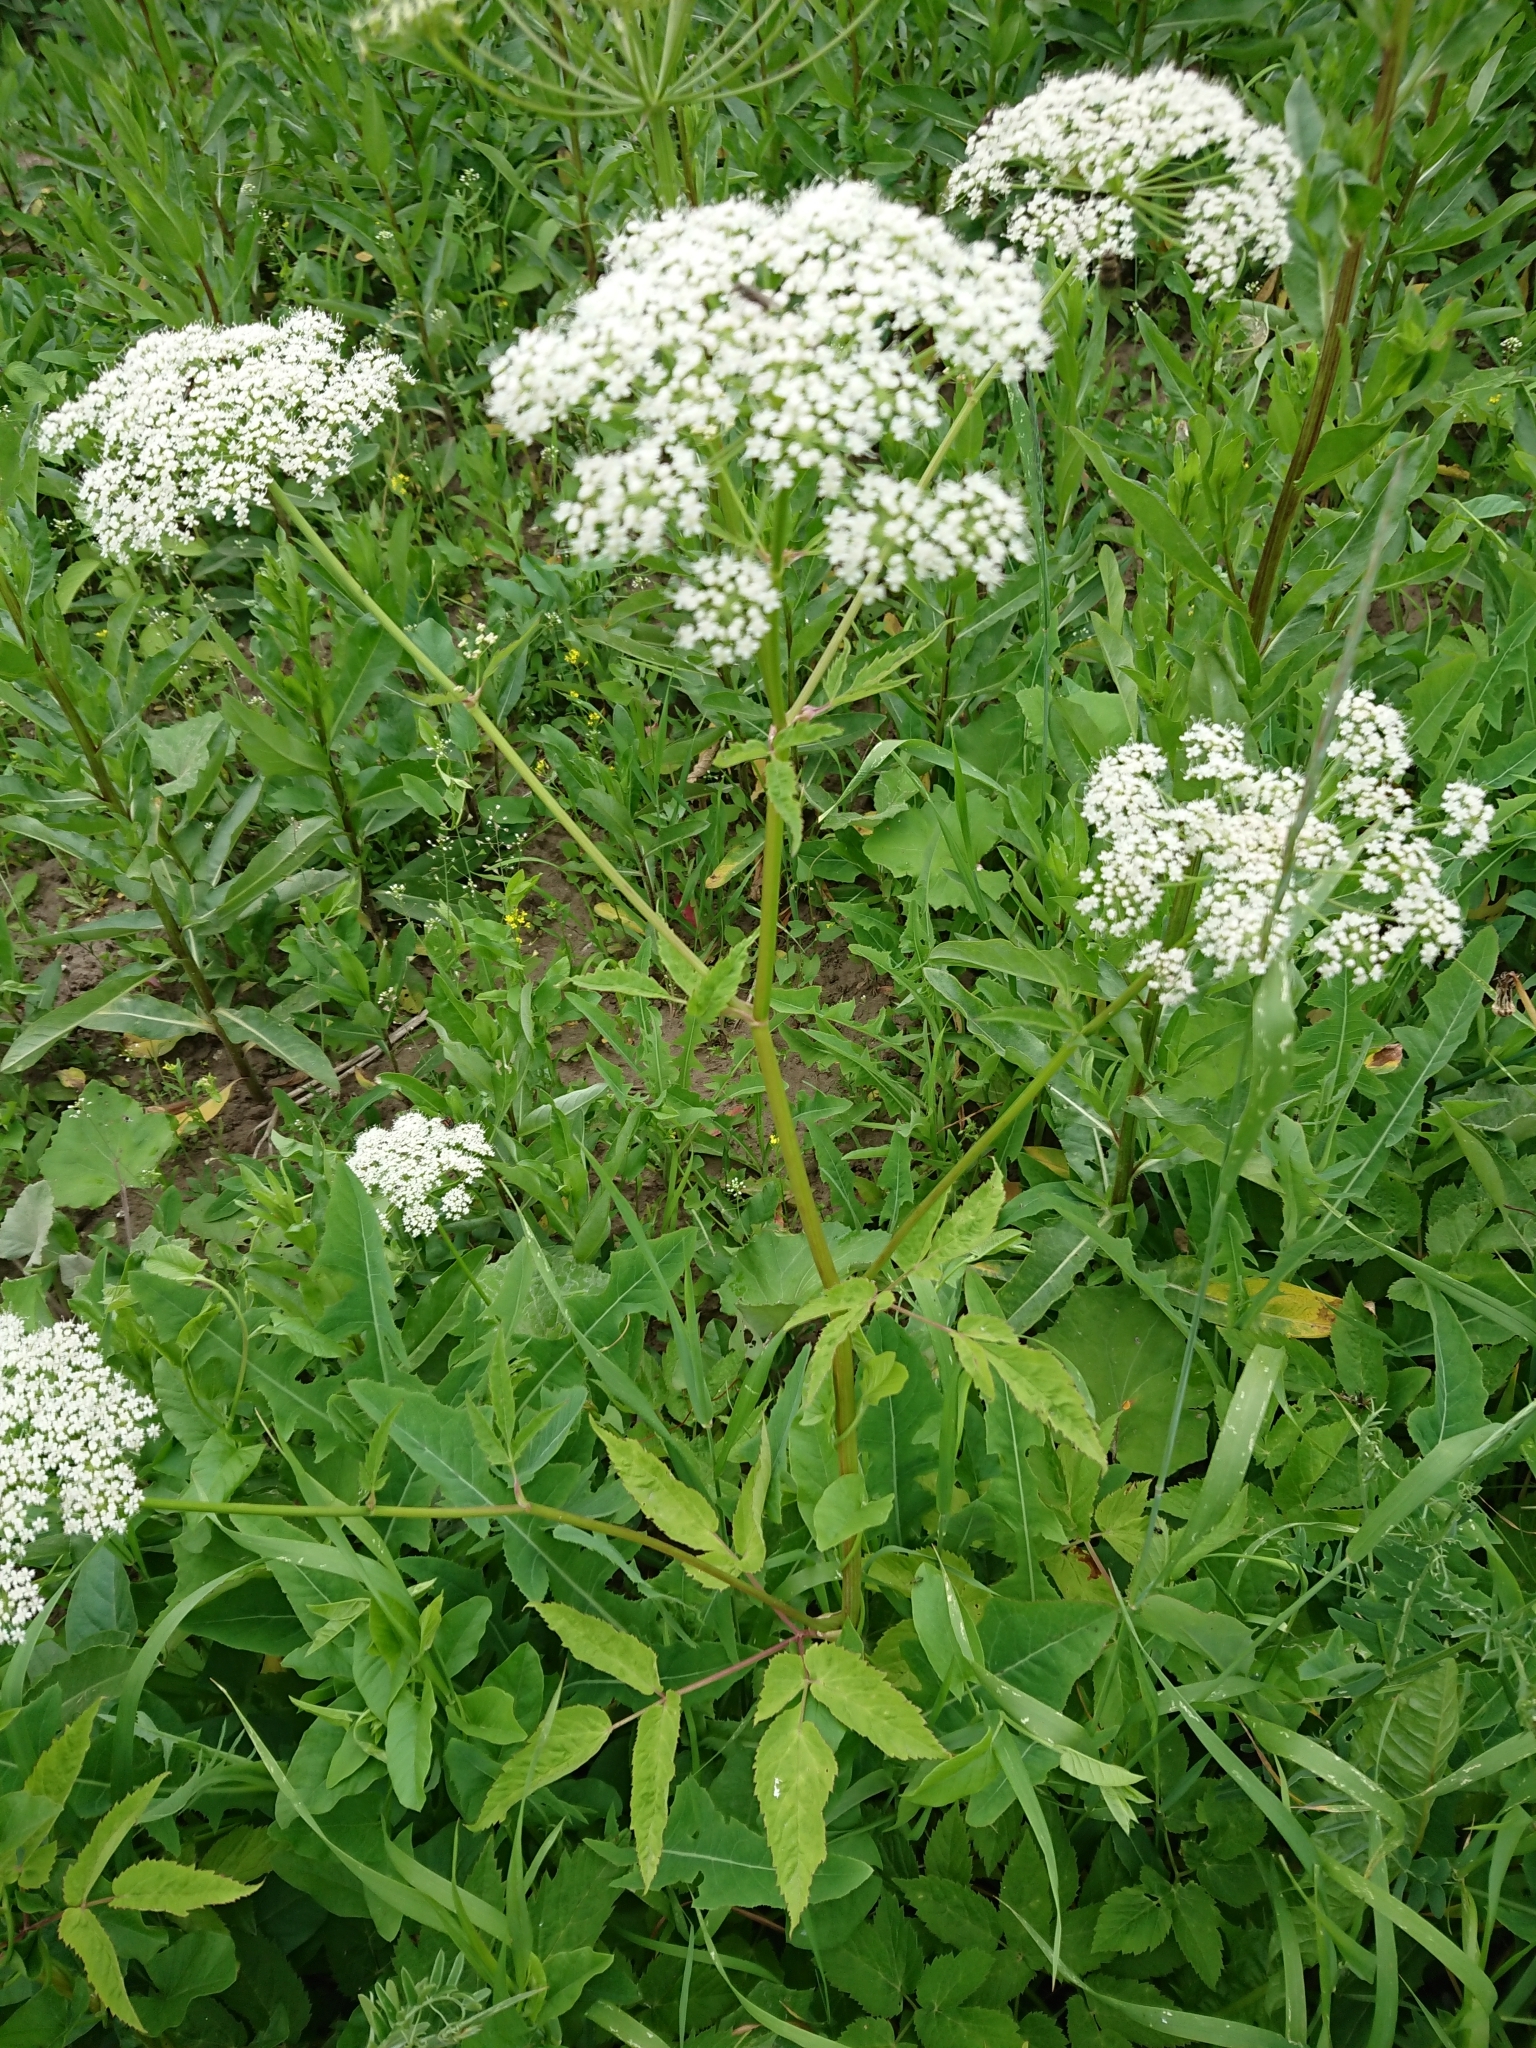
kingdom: Plantae
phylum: Tracheophyta
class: Magnoliopsida
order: Apiales
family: Apiaceae
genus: Aegopodium
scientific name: Aegopodium podagraria
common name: Ground-elder
